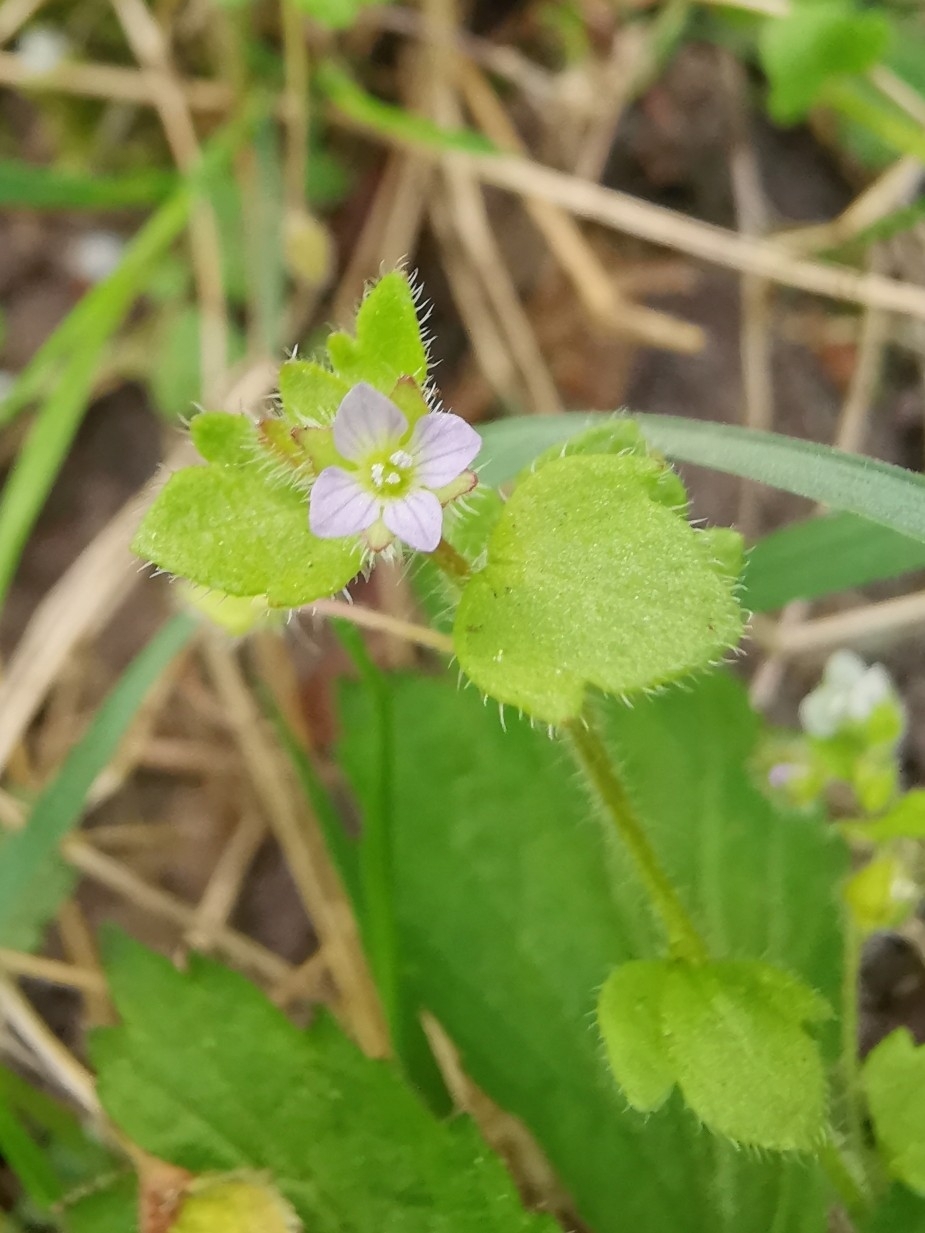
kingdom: Plantae
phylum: Tracheophyta
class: Magnoliopsida
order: Lamiales
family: Plantaginaceae
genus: Veronica
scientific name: Veronica sublobata
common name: False ivy-leaved speedwell
